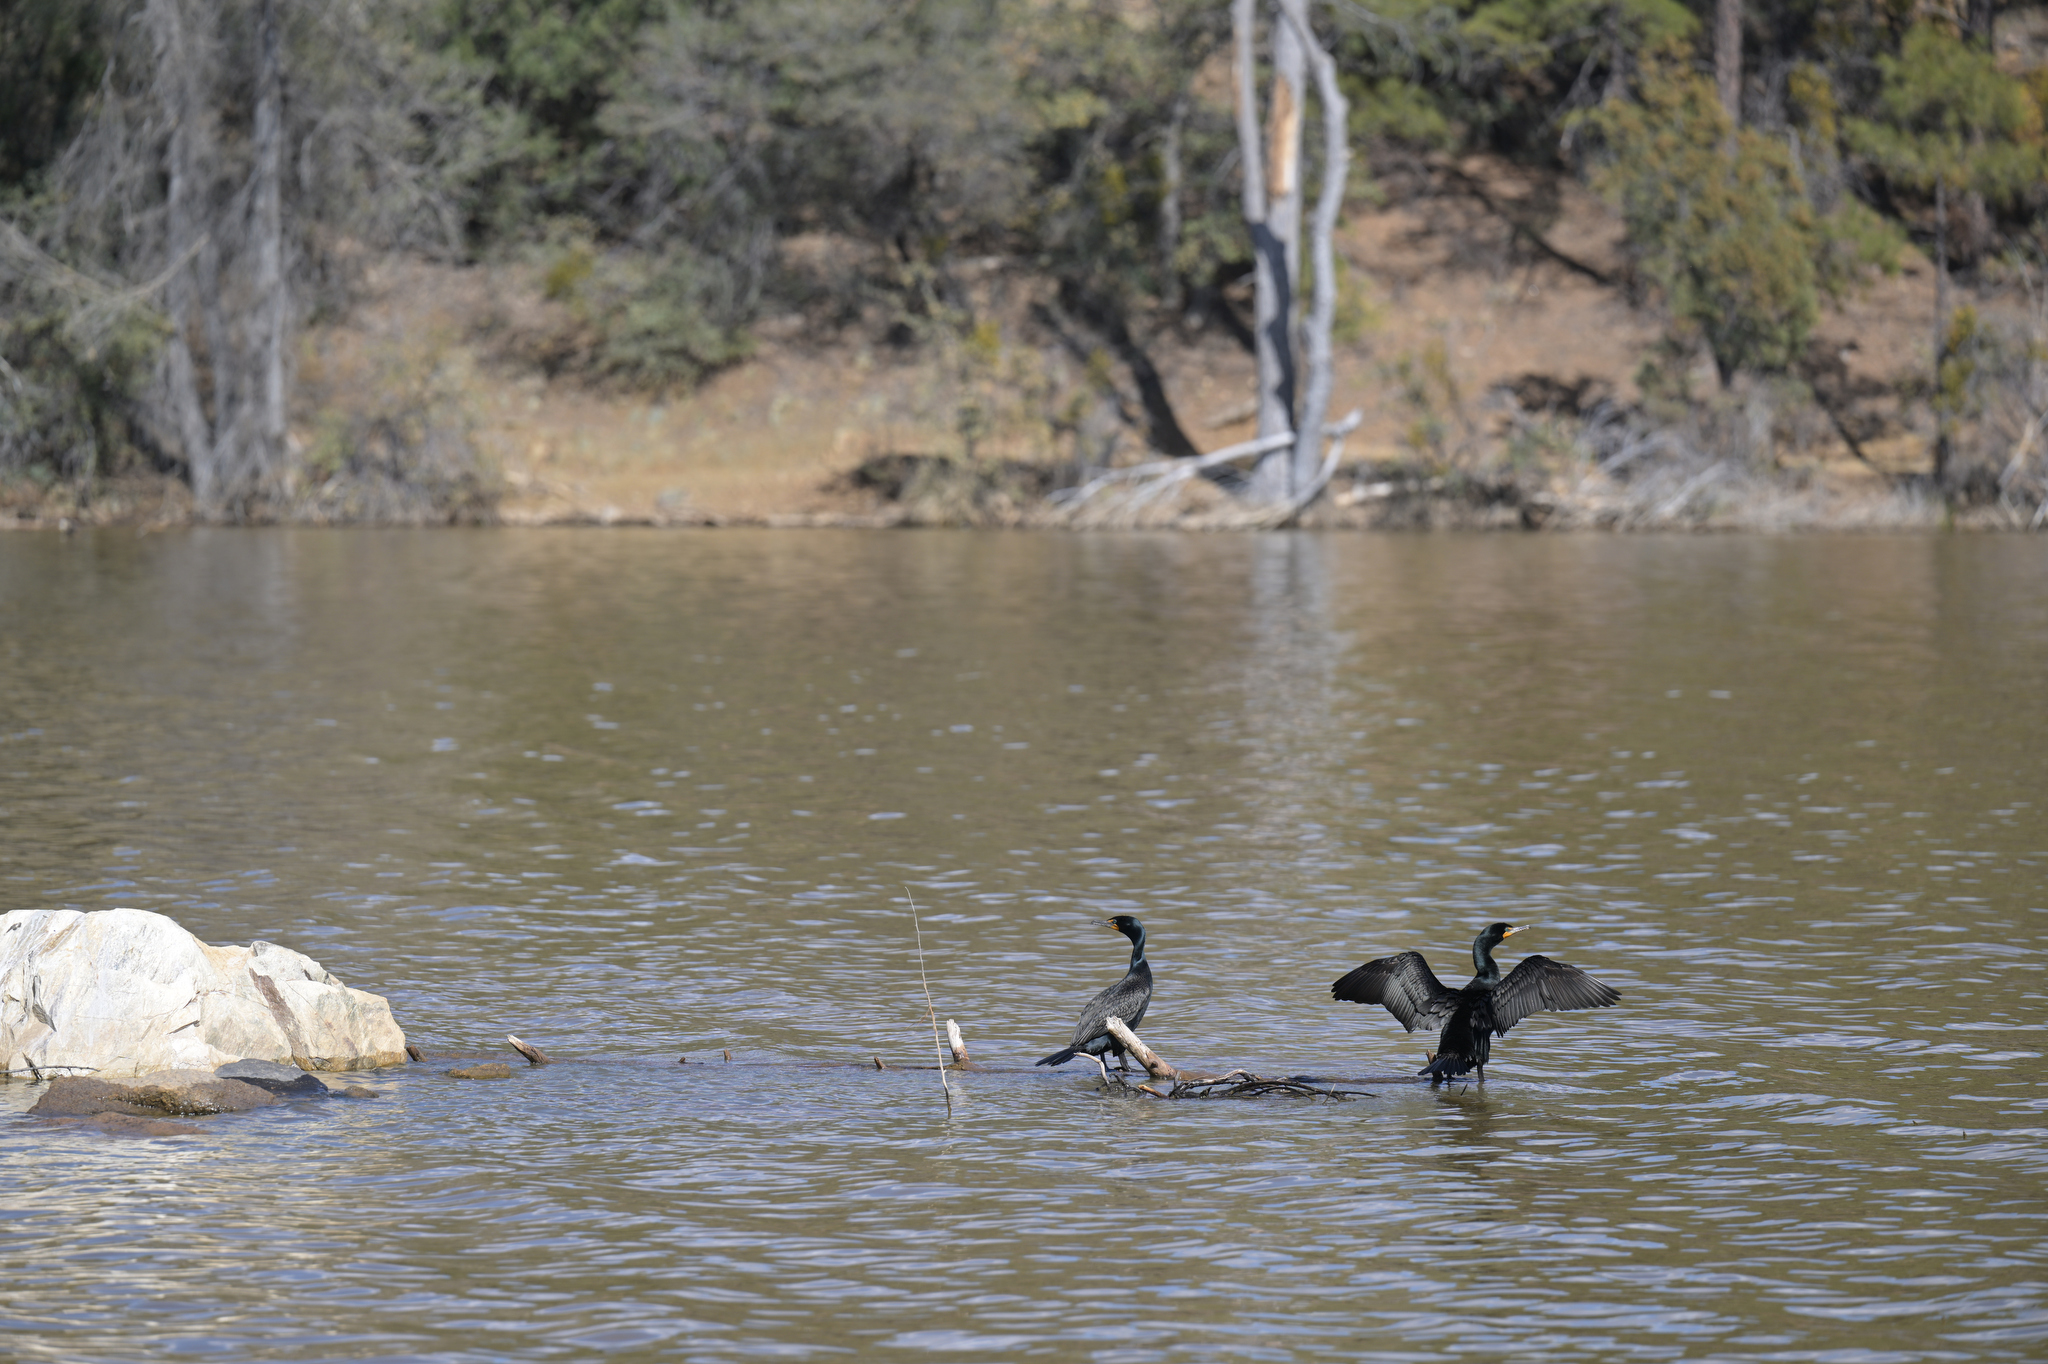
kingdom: Animalia
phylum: Chordata
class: Aves
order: Suliformes
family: Phalacrocoracidae
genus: Phalacrocorax
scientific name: Phalacrocorax auritus
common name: Double-crested cormorant
